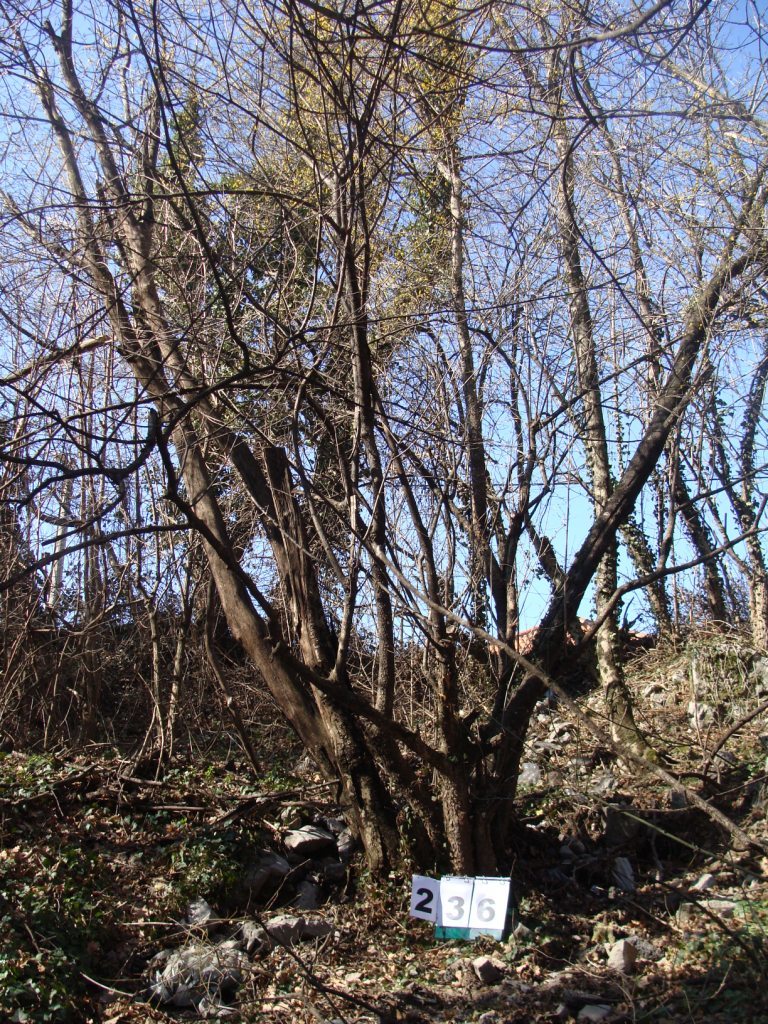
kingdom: Plantae
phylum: Tracheophyta
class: Magnoliopsida
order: Cornales
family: Cornaceae
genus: Cornus
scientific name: Cornus mas
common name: Cornelian-cherry
